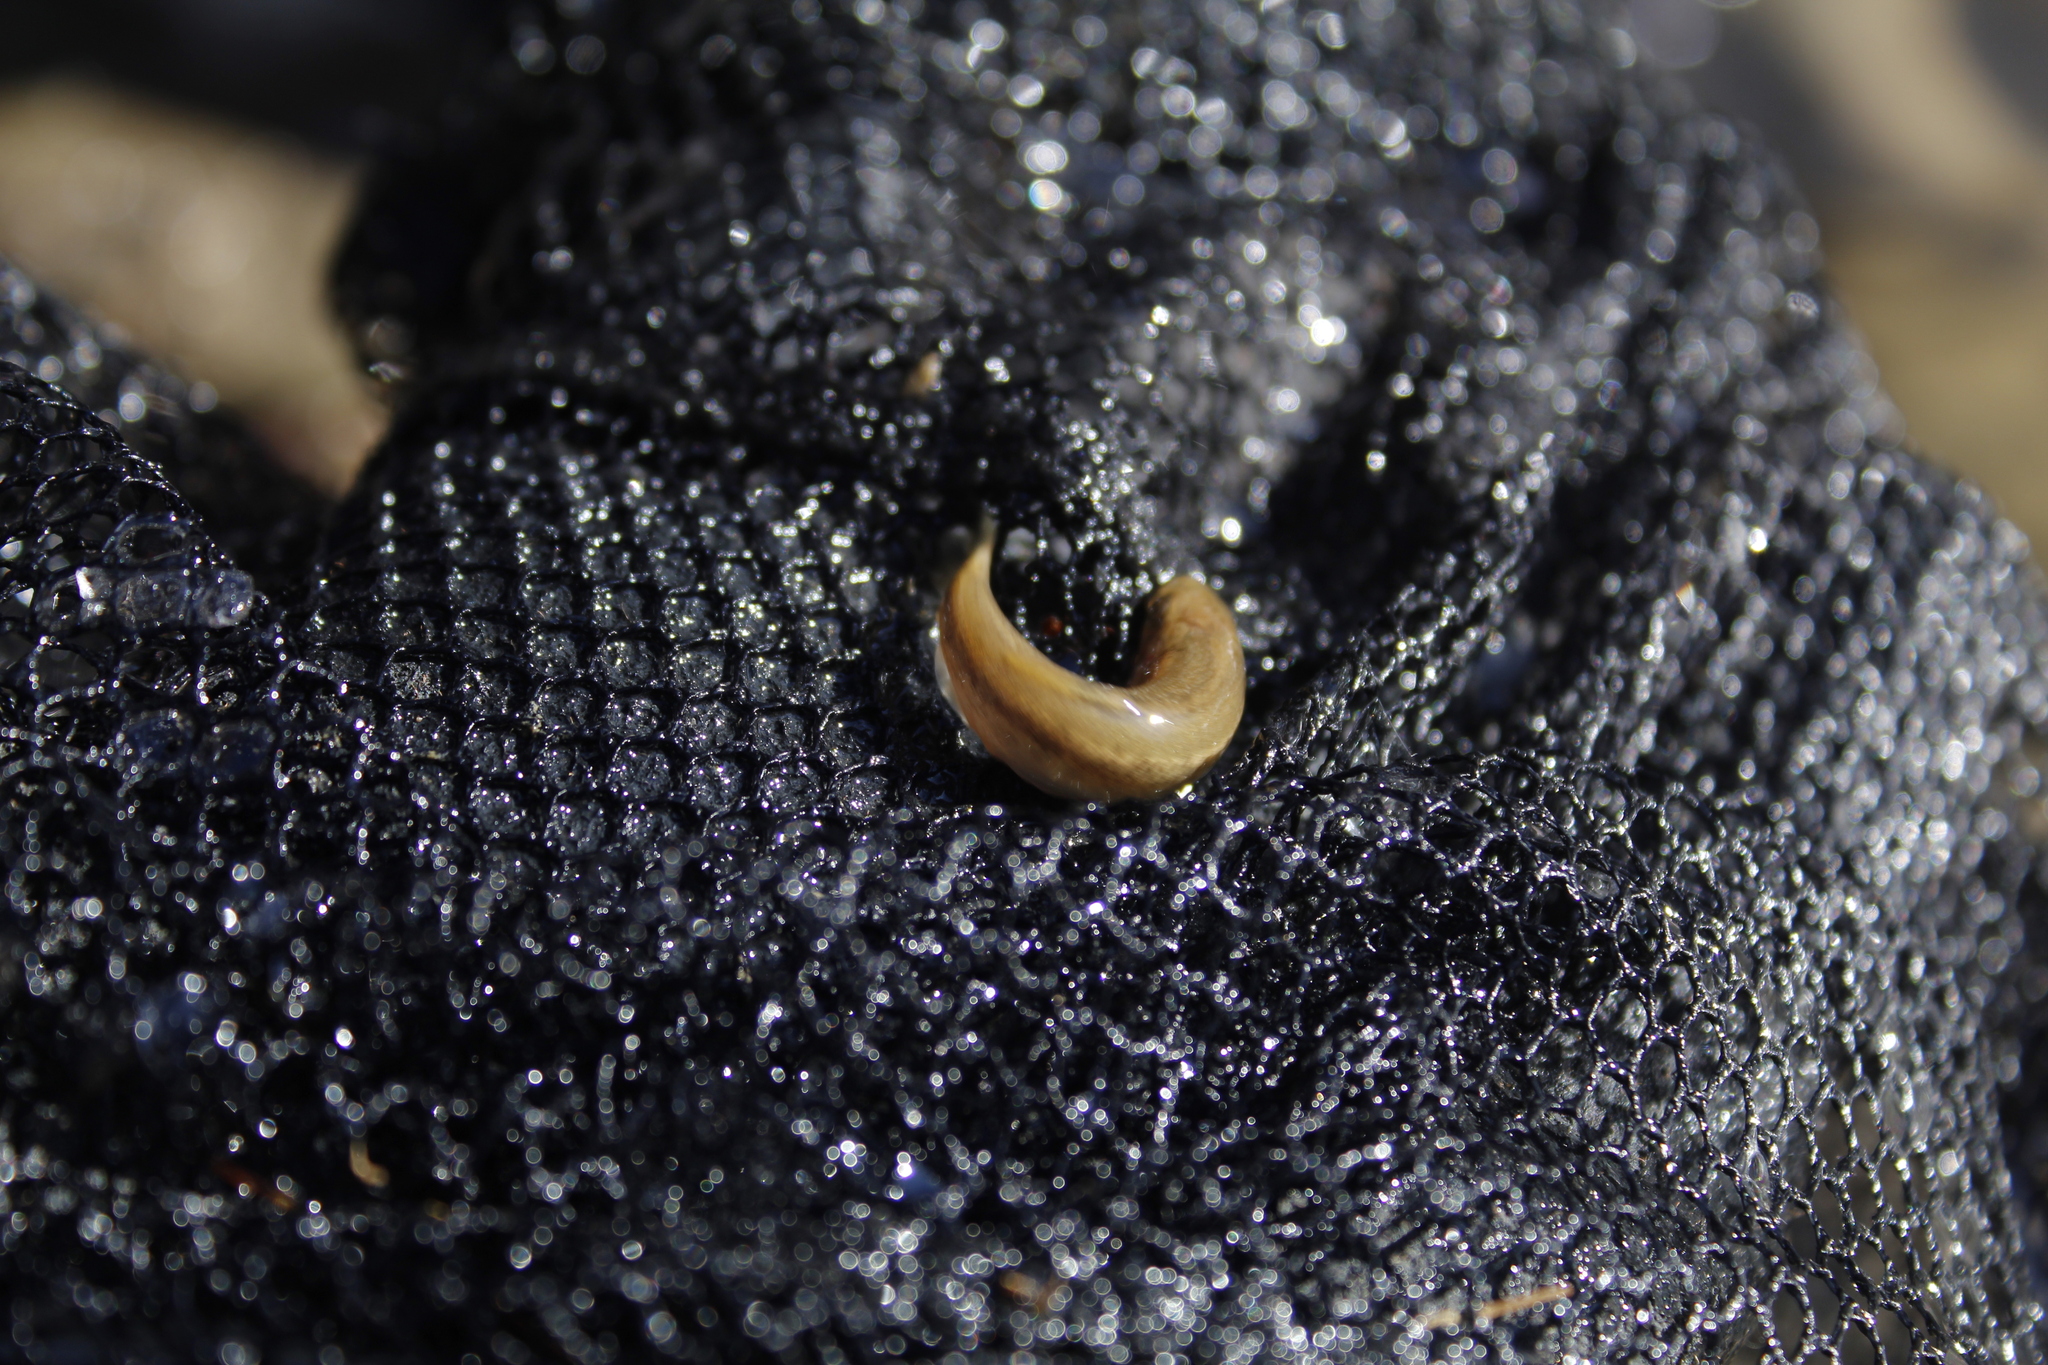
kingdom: Animalia
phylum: Chordata
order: Cypriniformes
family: Cyprinidae
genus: Exoglossum
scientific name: Exoglossum maxillingua
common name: Cutlip minnow
